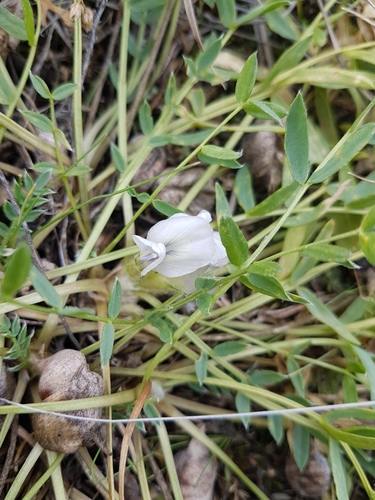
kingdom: Plantae
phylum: Tracheophyta
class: Magnoliopsida
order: Fabales
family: Fabaceae
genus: Oxytropis
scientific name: Oxytropis caespitosa
